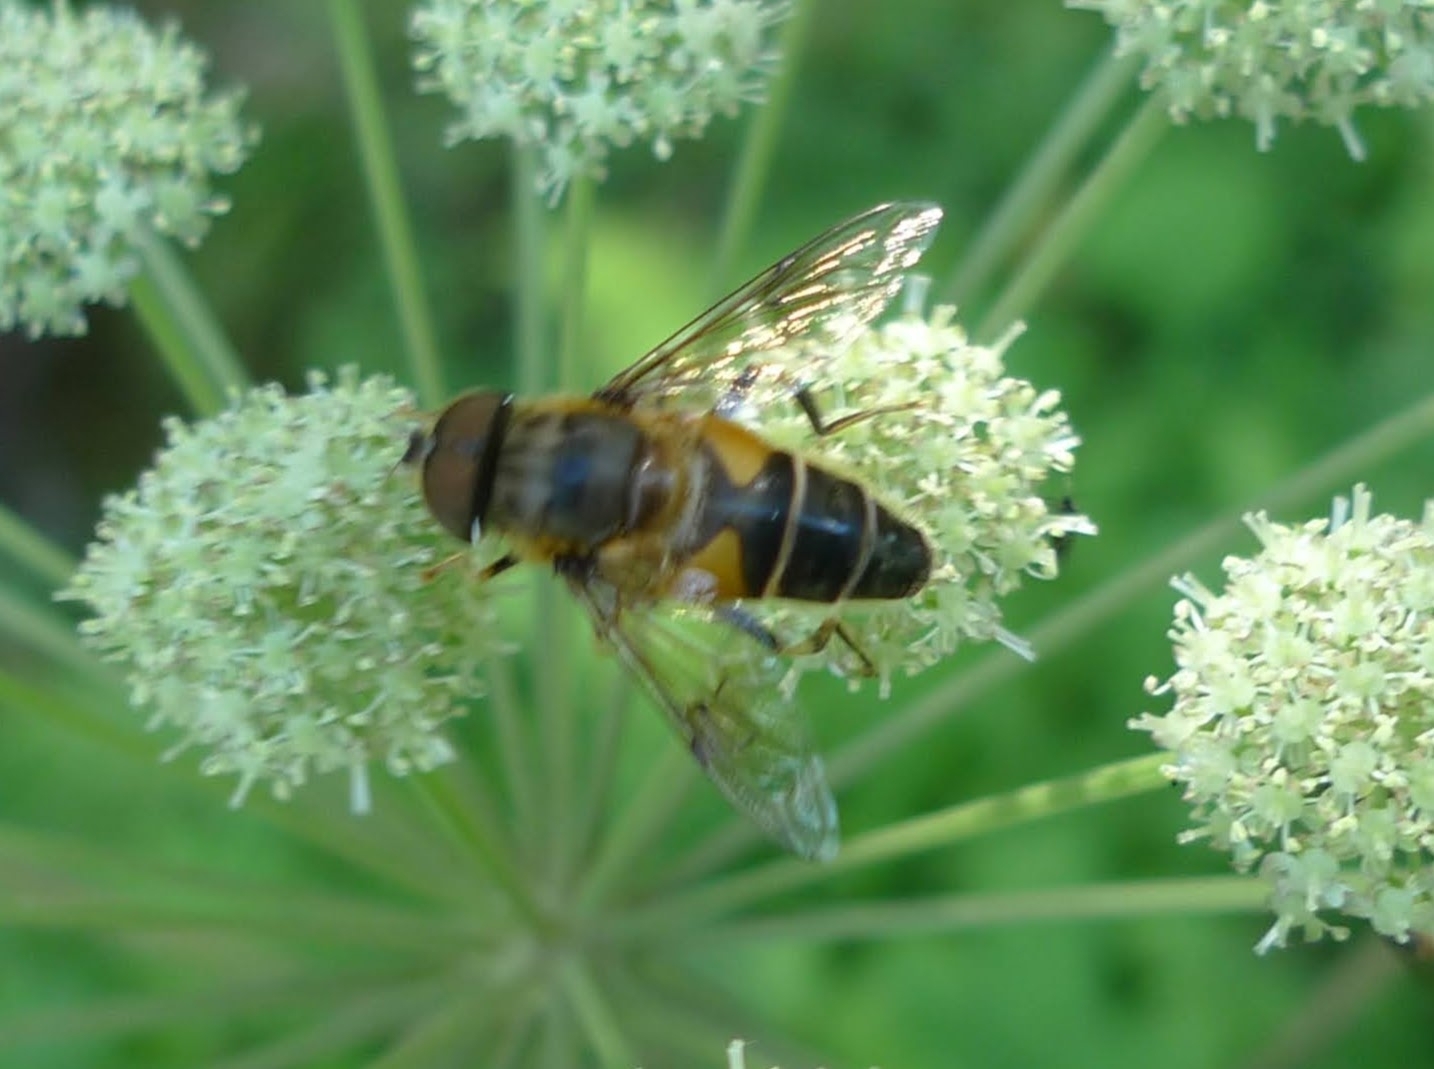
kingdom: Animalia
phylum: Arthropoda
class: Insecta
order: Diptera
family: Syrphidae
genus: Eristalis
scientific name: Eristalis pertinax
